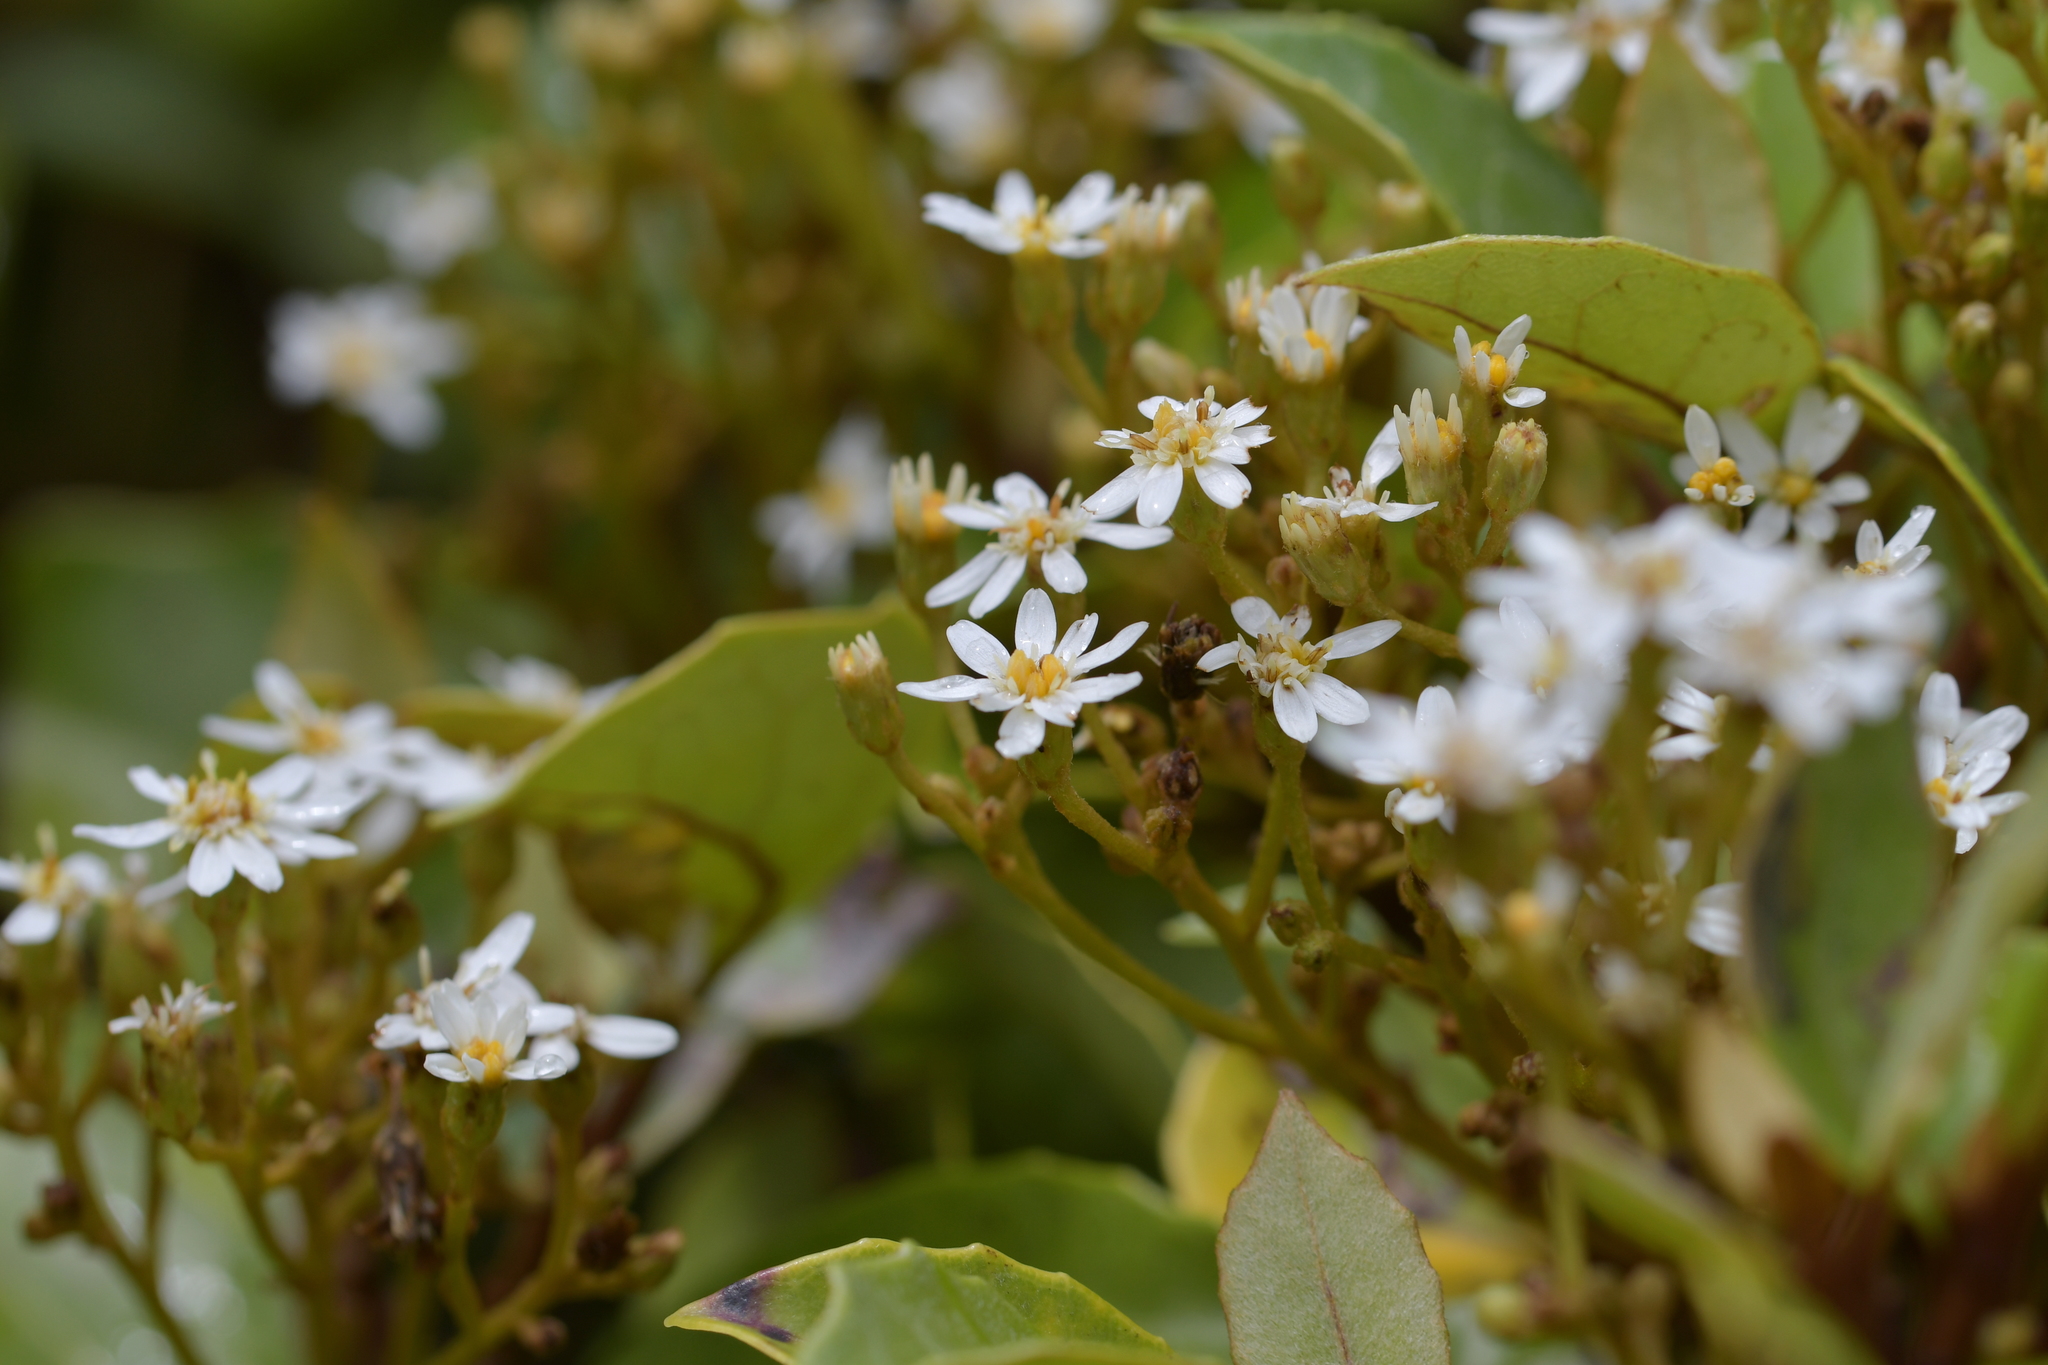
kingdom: Plantae
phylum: Tracheophyta
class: Magnoliopsida
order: Asterales
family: Asteraceae
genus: Olearia
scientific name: Olearia arborescens
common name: Glossy tree daisy
